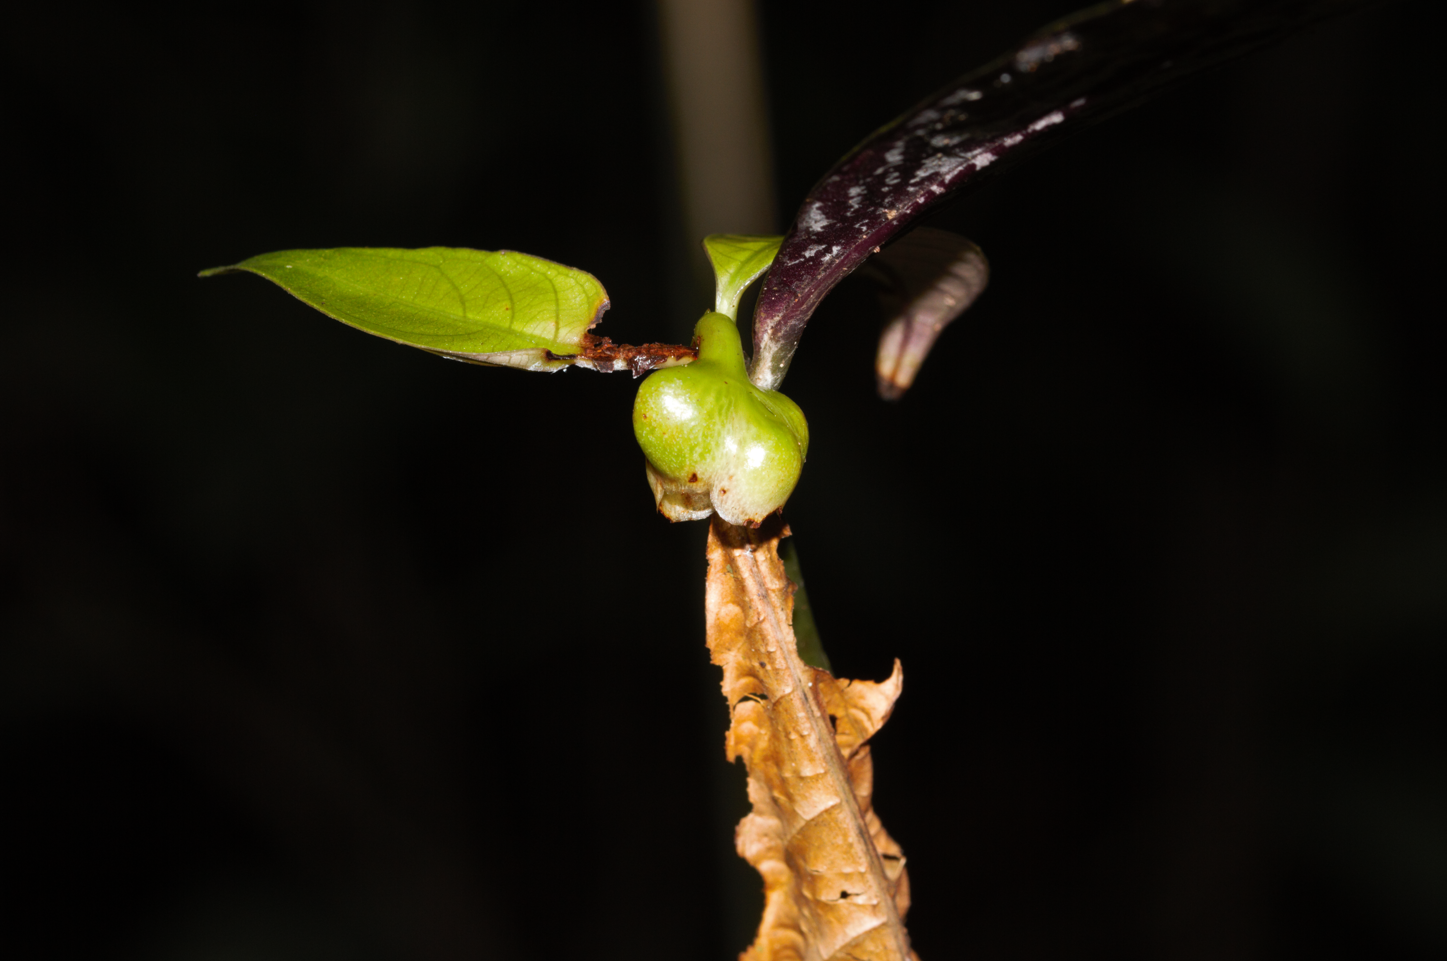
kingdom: Plantae
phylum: Tracheophyta
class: Magnoliopsida
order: Gentianales
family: Rubiaceae
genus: Palicourea
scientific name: Palicourea dichotoma
